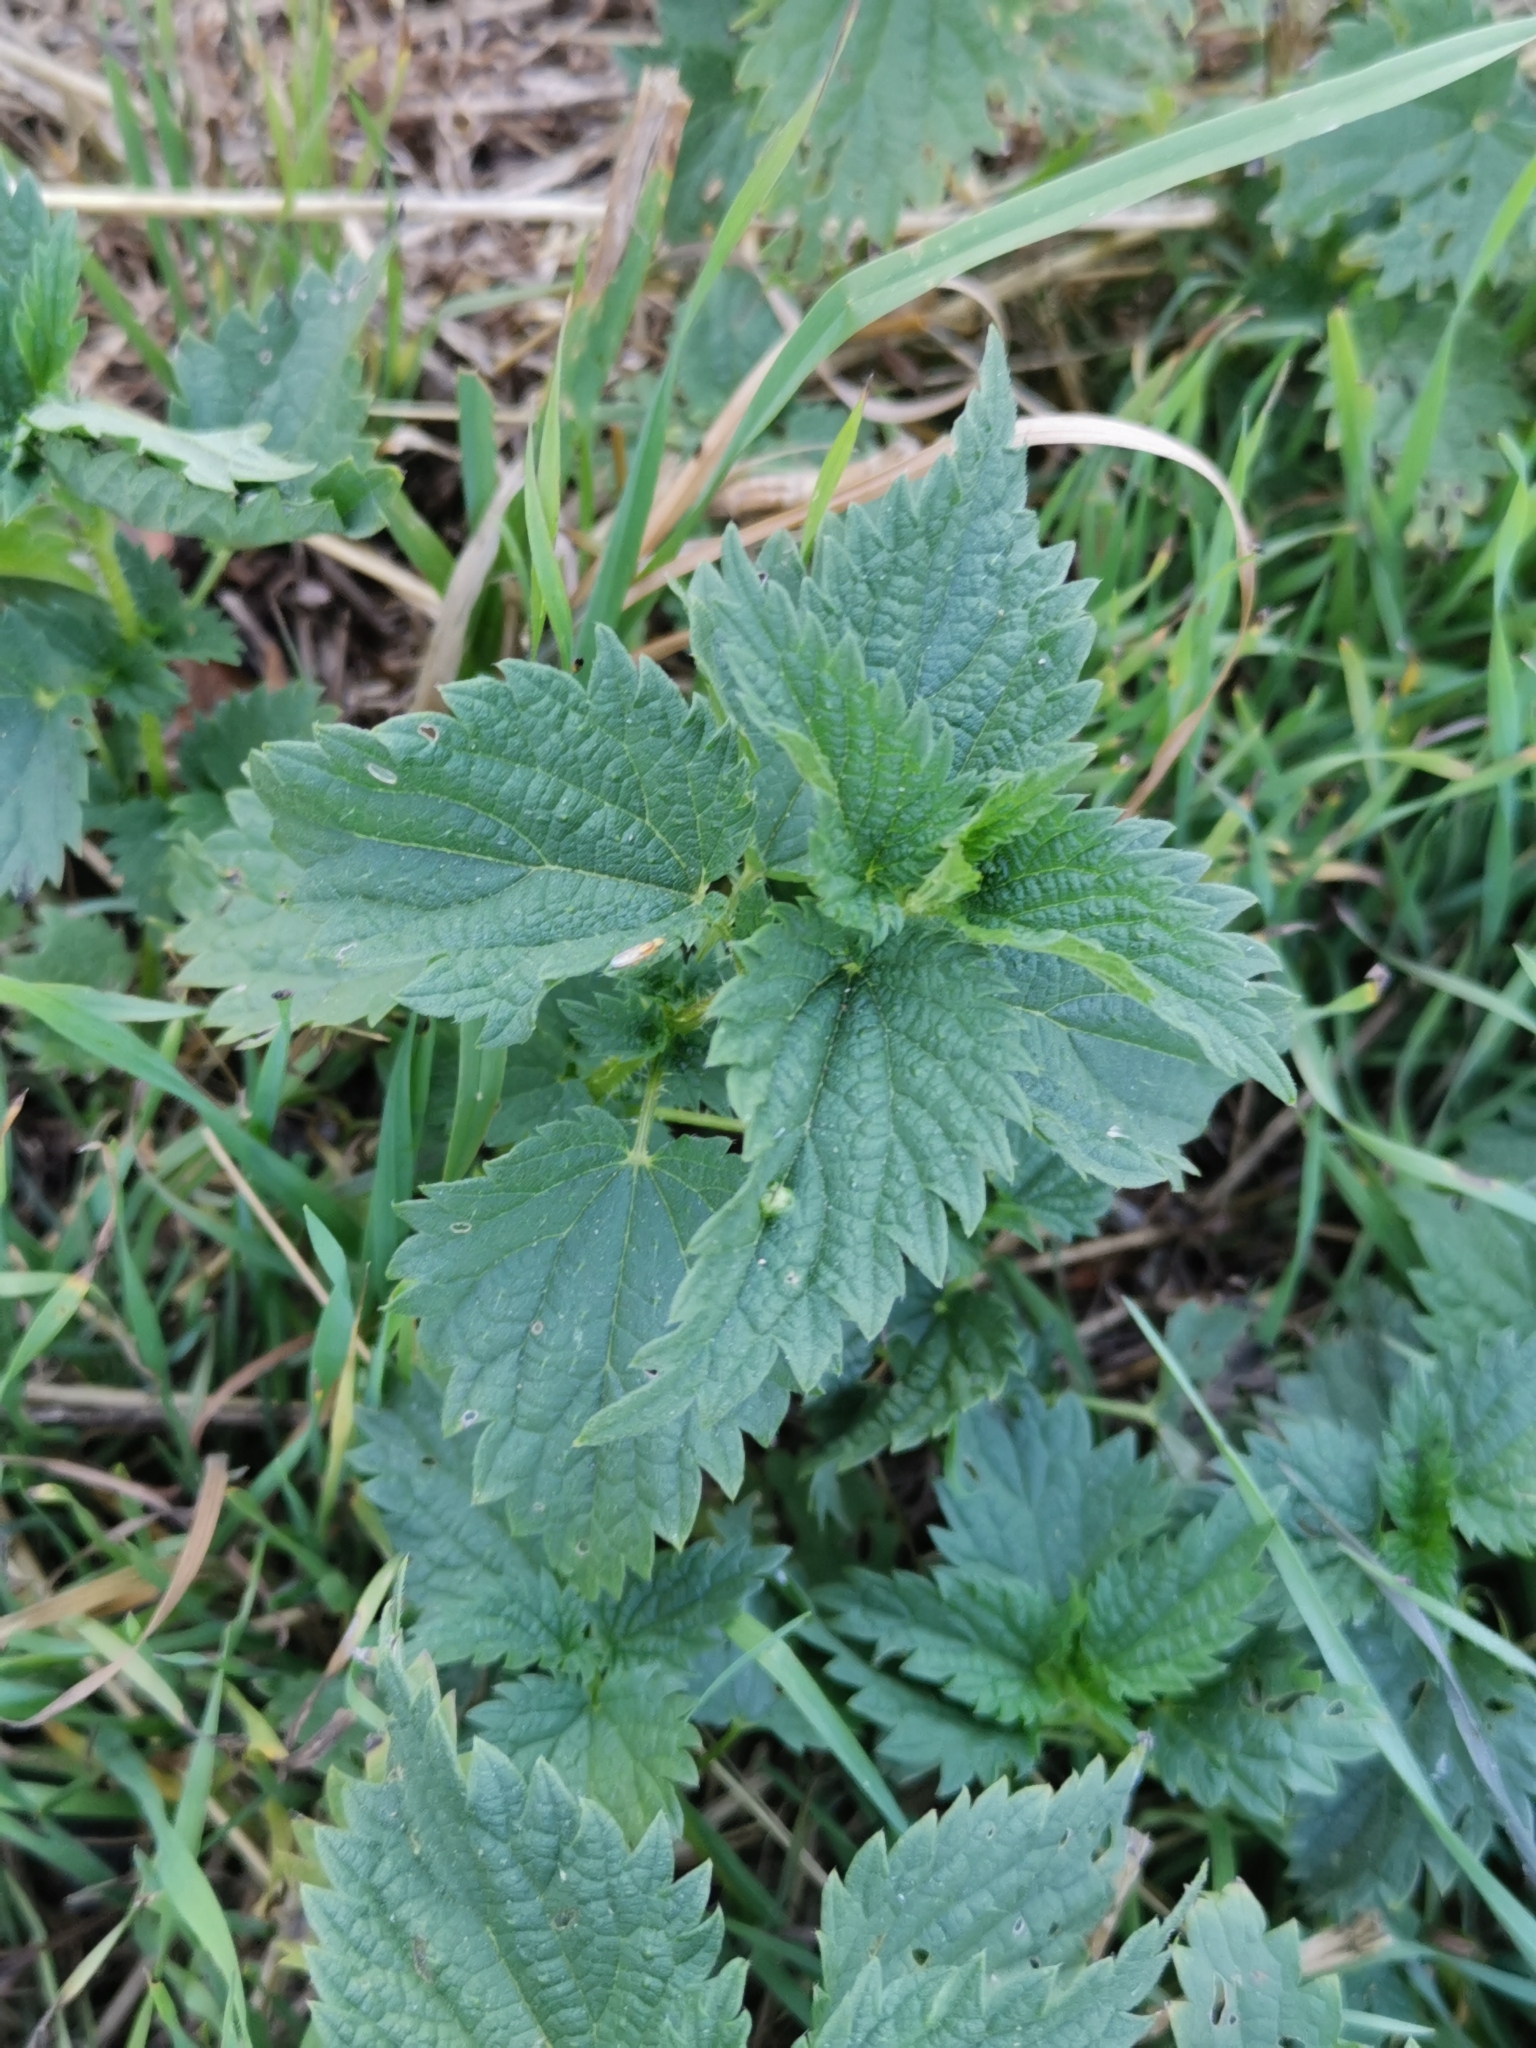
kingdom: Plantae
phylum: Tracheophyta
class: Magnoliopsida
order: Rosales
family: Urticaceae
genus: Urtica
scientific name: Urtica dioica
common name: Common nettle
